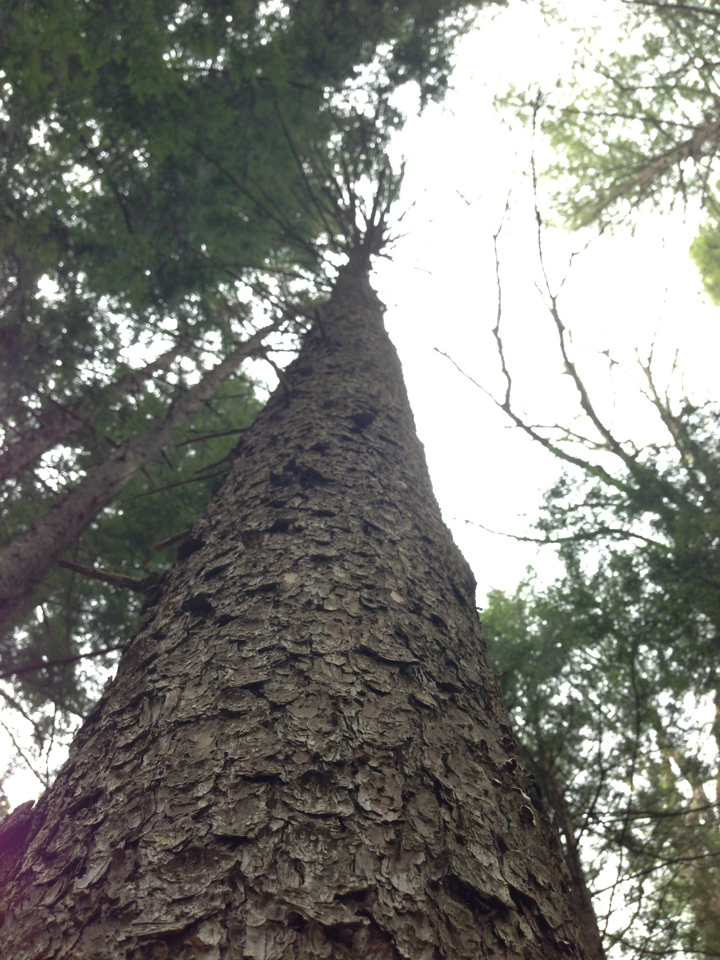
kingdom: Plantae
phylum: Tracheophyta
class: Pinopsida
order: Pinales
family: Pinaceae
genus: Picea
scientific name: Picea rubens
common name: Red spruce
